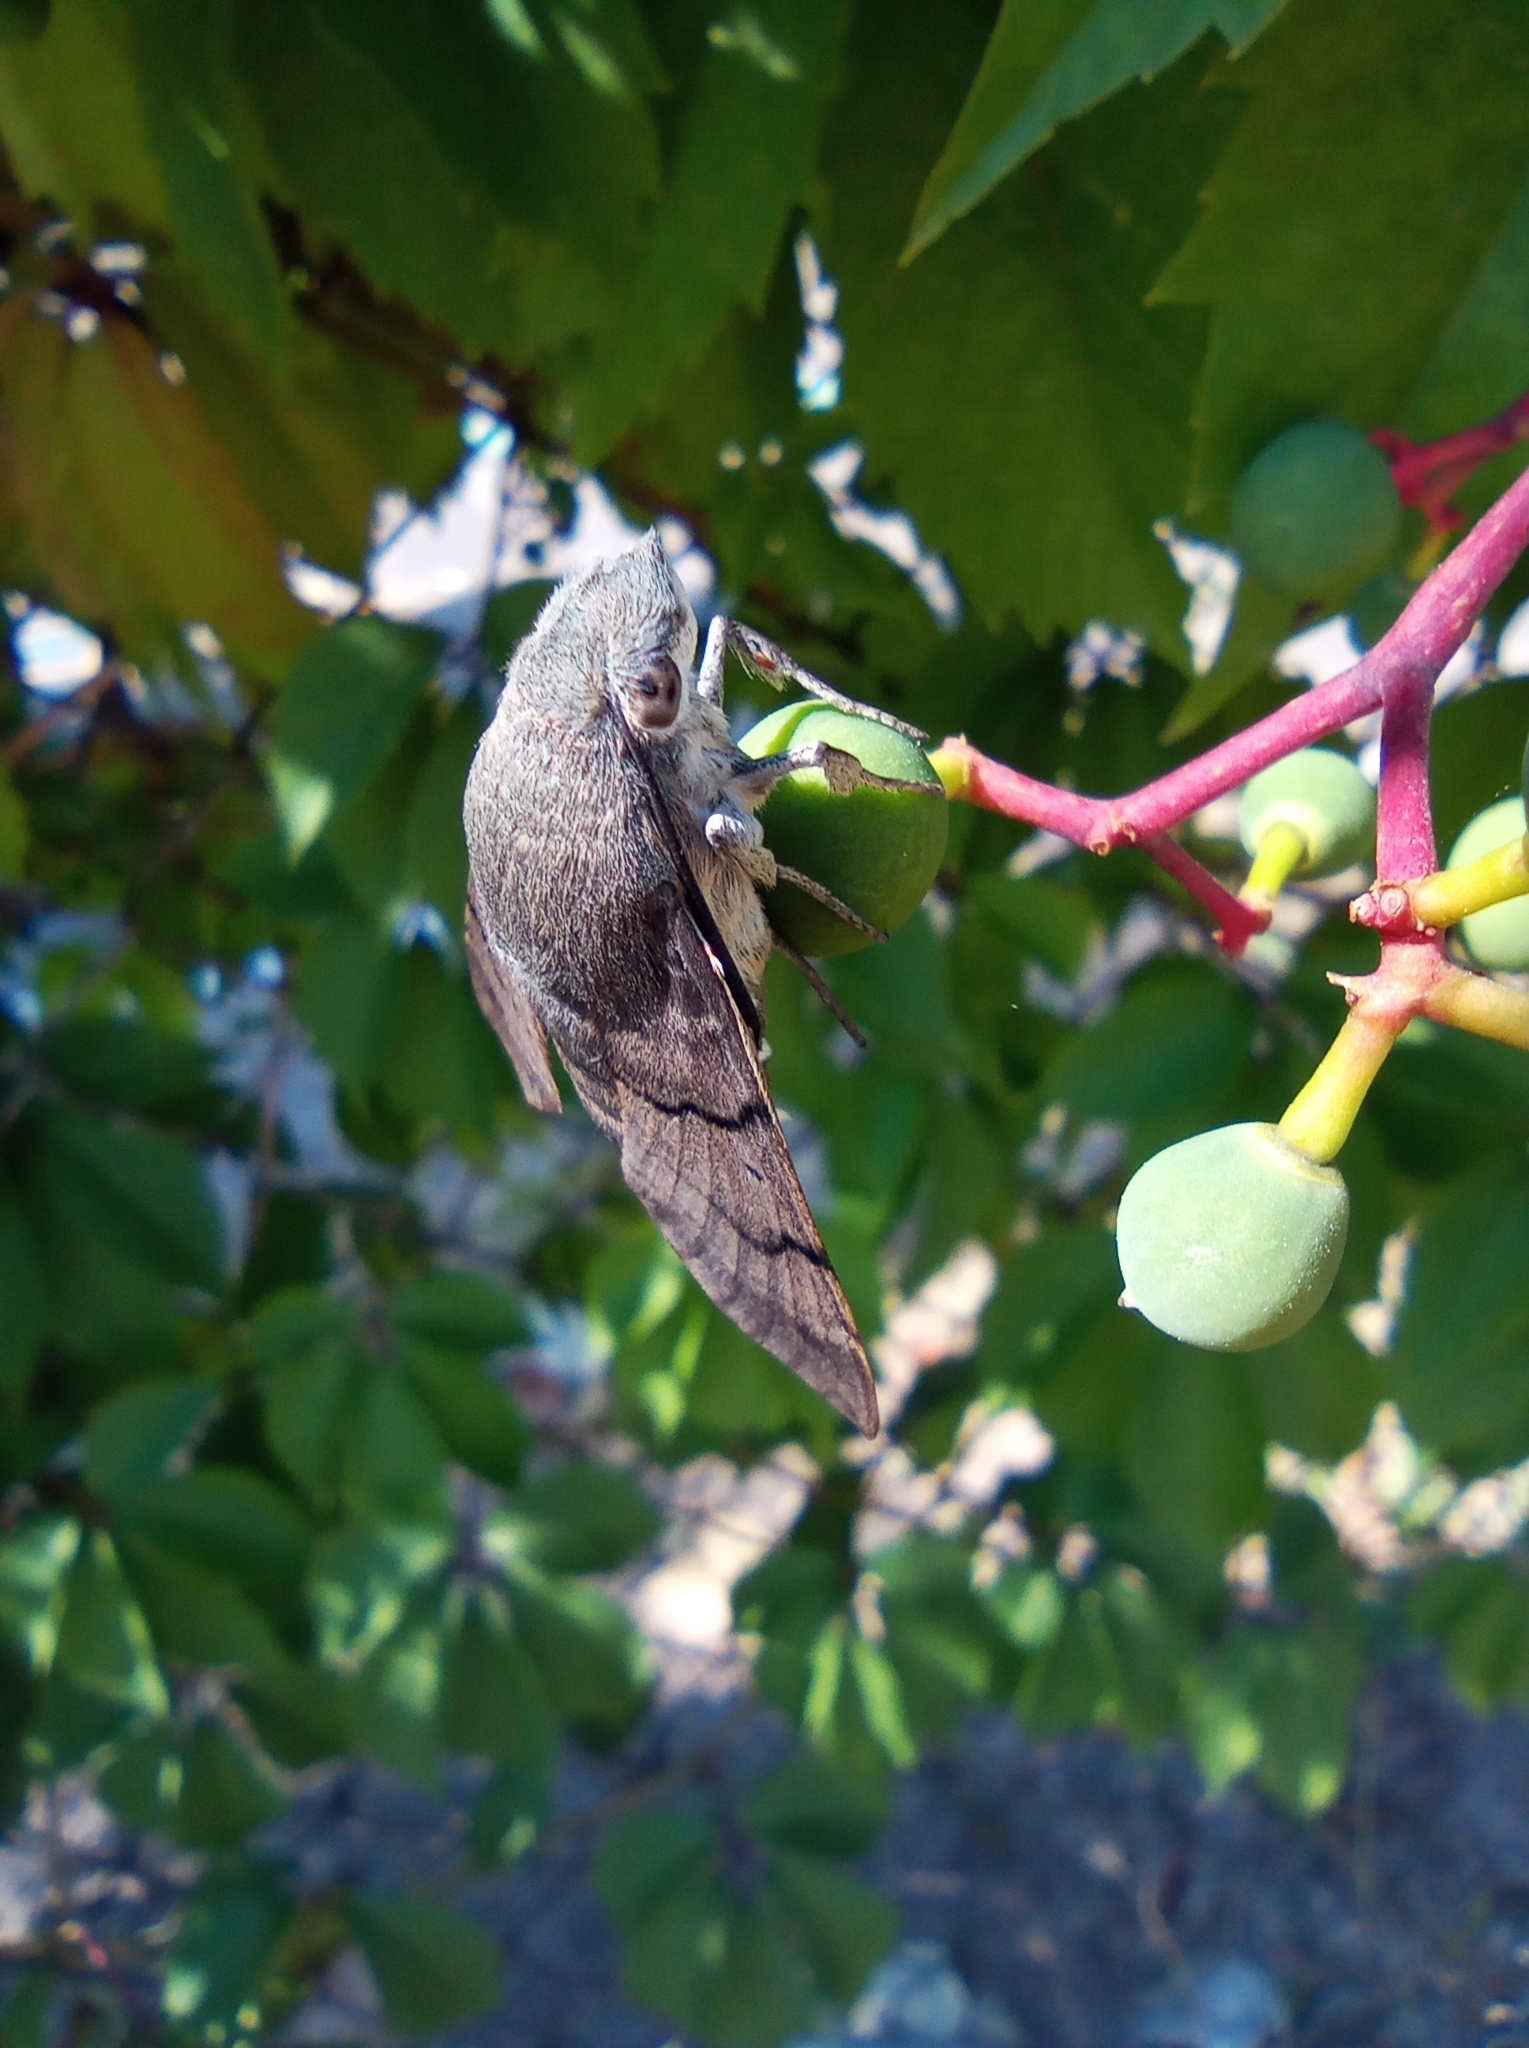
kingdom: Animalia
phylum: Arthropoda
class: Insecta
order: Lepidoptera
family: Sphingidae
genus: Macroglossum
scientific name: Macroglossum stellatarum
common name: Humming-bird hawk-moth
